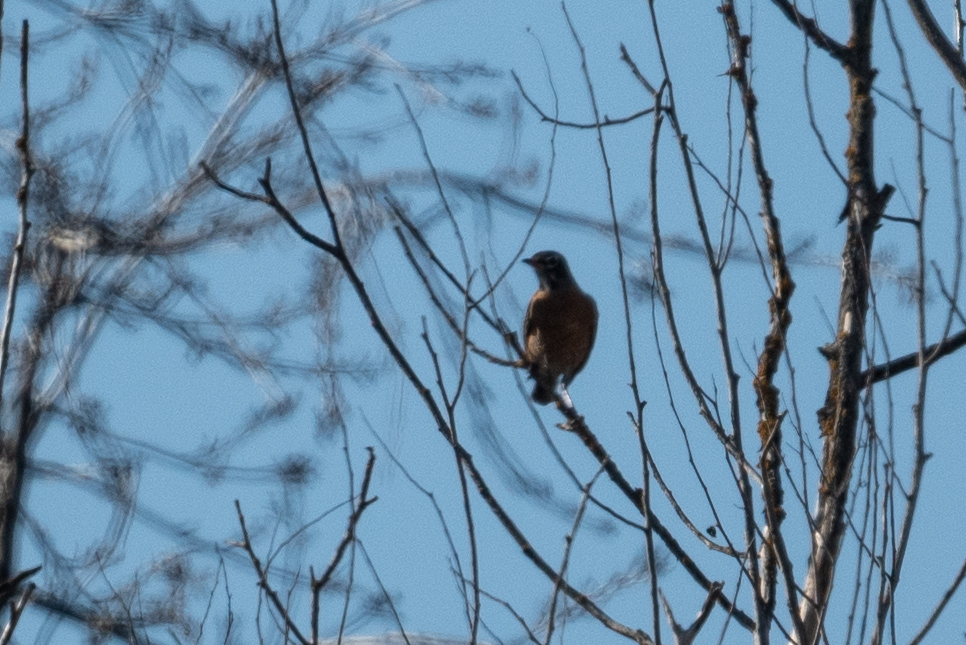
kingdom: Animalia
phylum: Chordata
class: Aves
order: Passeriformes
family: Turdidae
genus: Turdus
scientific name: Turdus migratorius
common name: American robin
